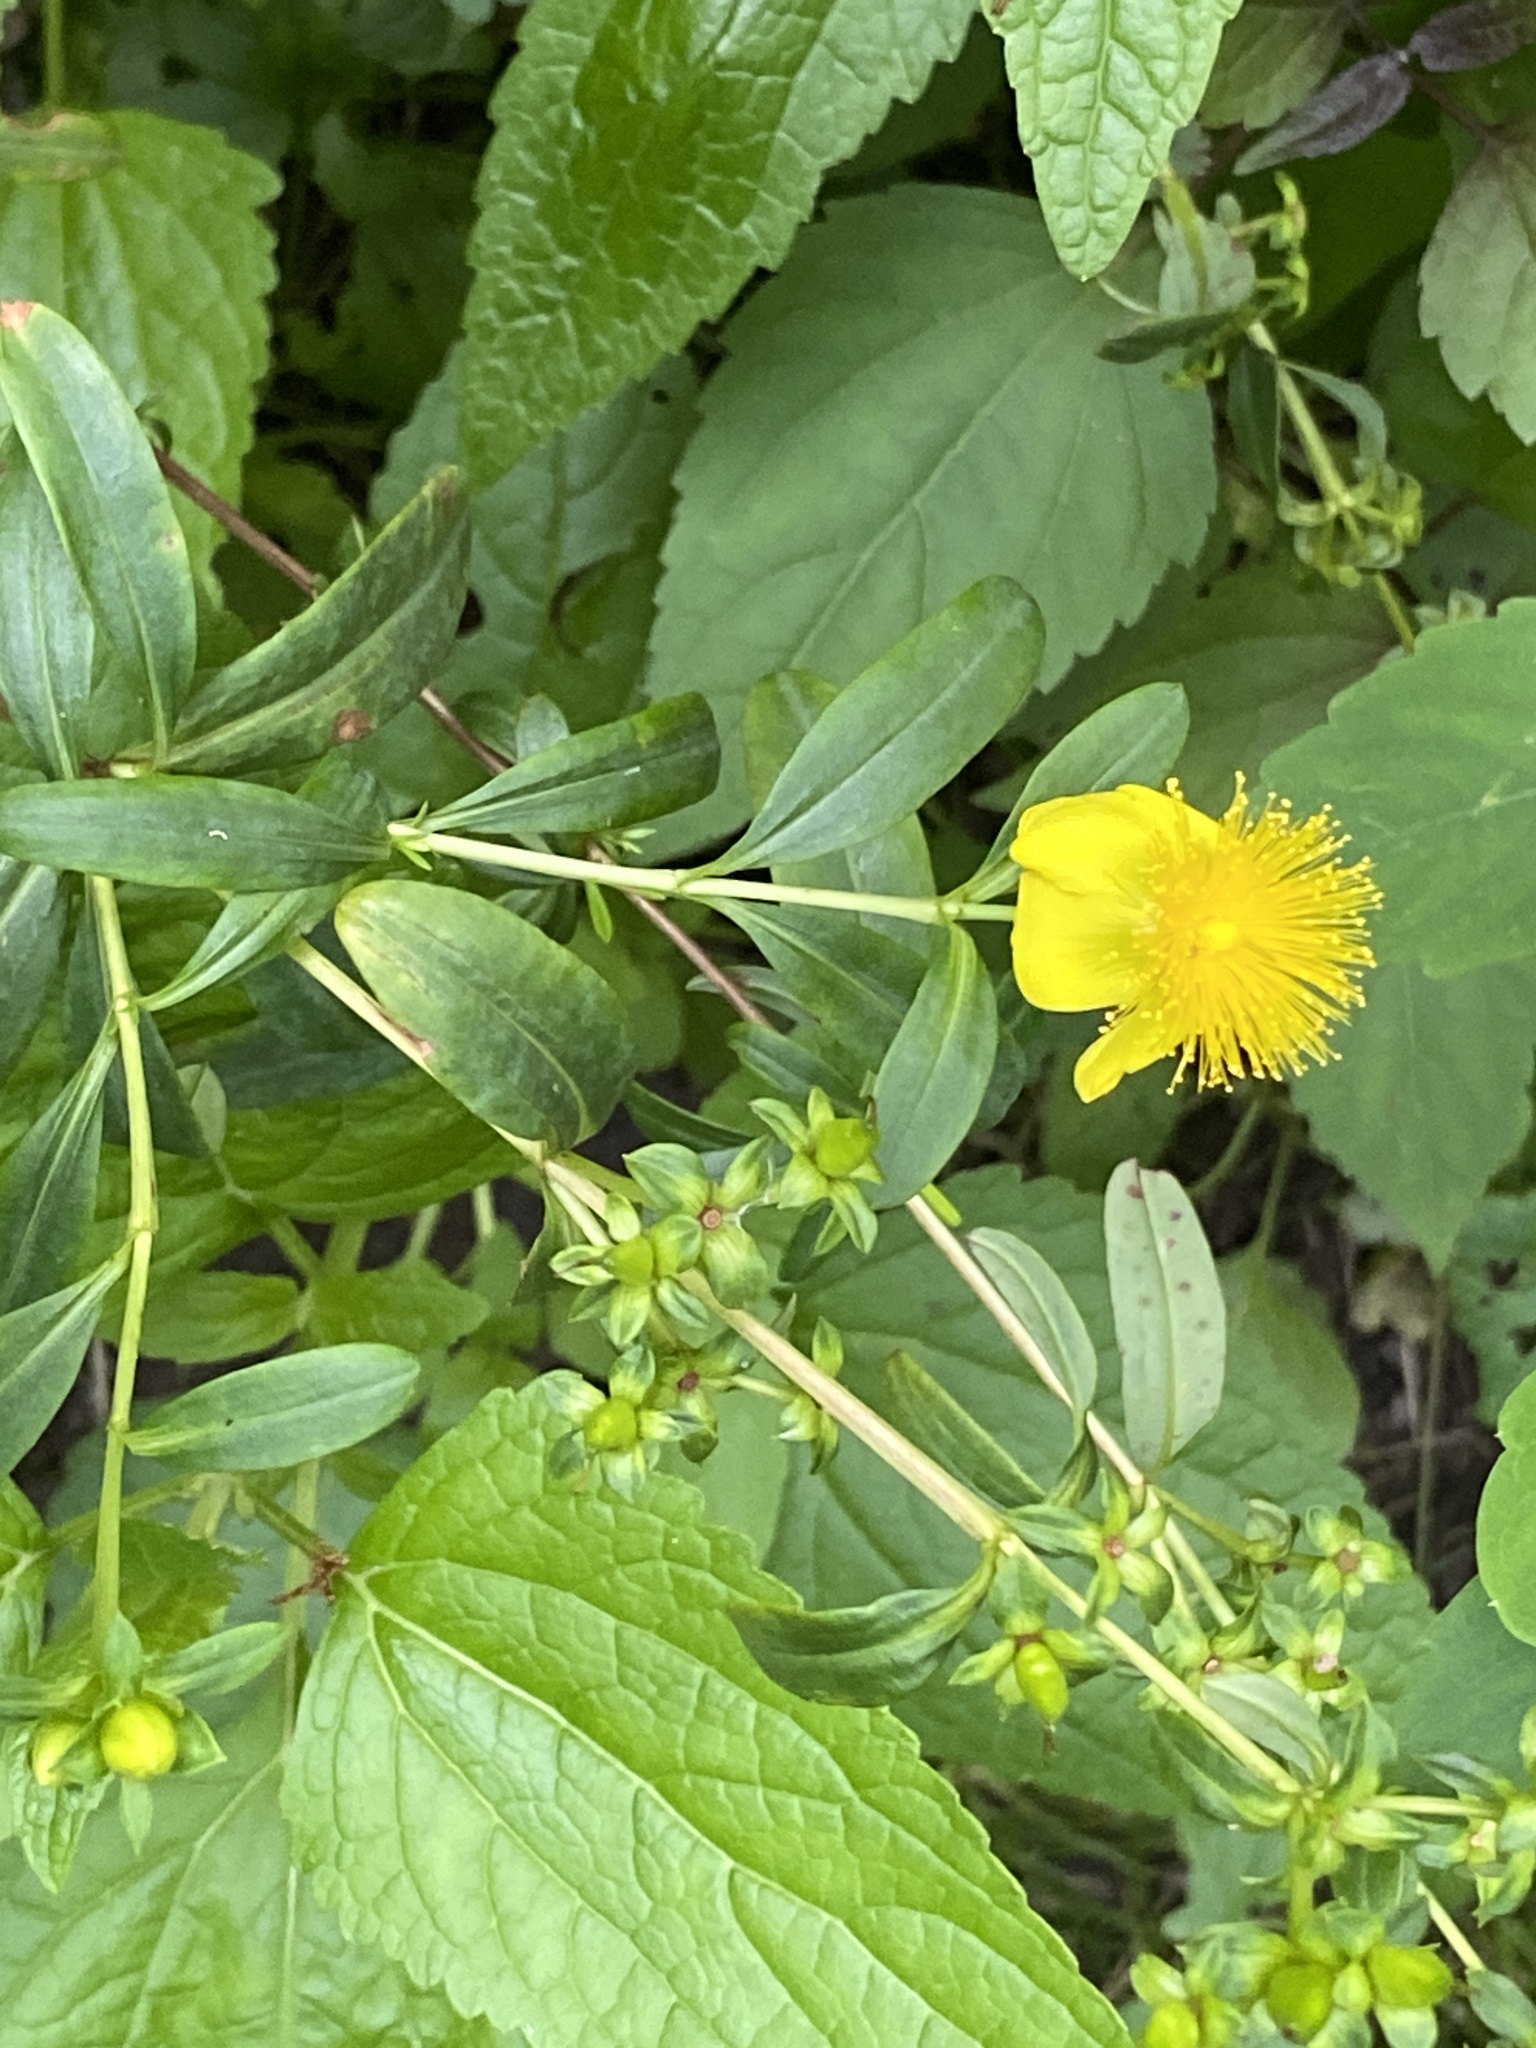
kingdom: Plantae
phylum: Tracheophyta
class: Magnoliopsida
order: Malpighiales
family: Hypericaceae
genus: Hypericum
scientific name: Hypericum prolificum
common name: Shrubby st. john's-wort
